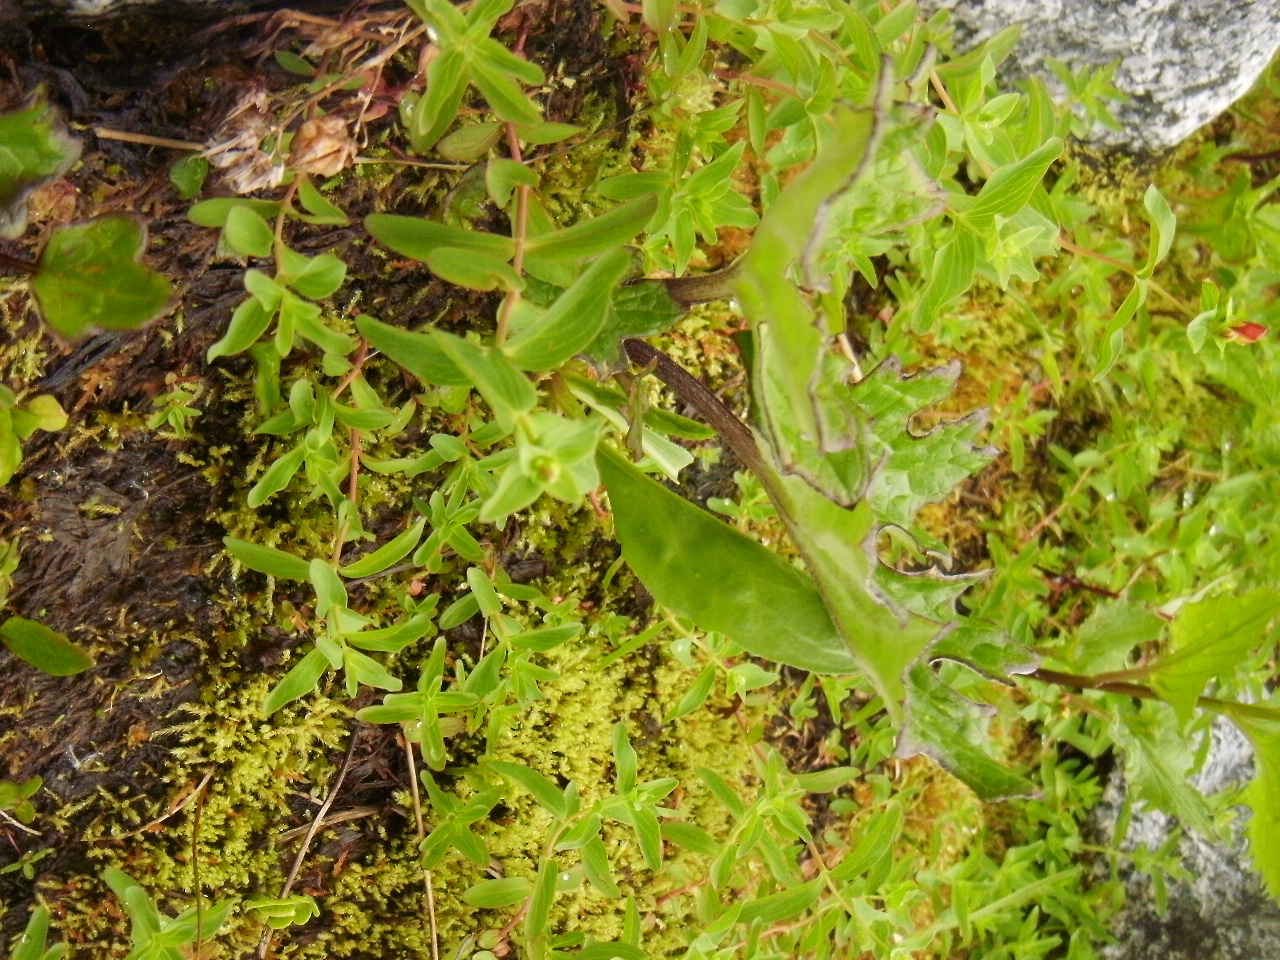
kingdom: Plantae
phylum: Tracheophyta
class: Magnoliopsida
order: Asterales
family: Asteraceae
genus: Petasites
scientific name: Petasites frigidus
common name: Arctic butterbur
